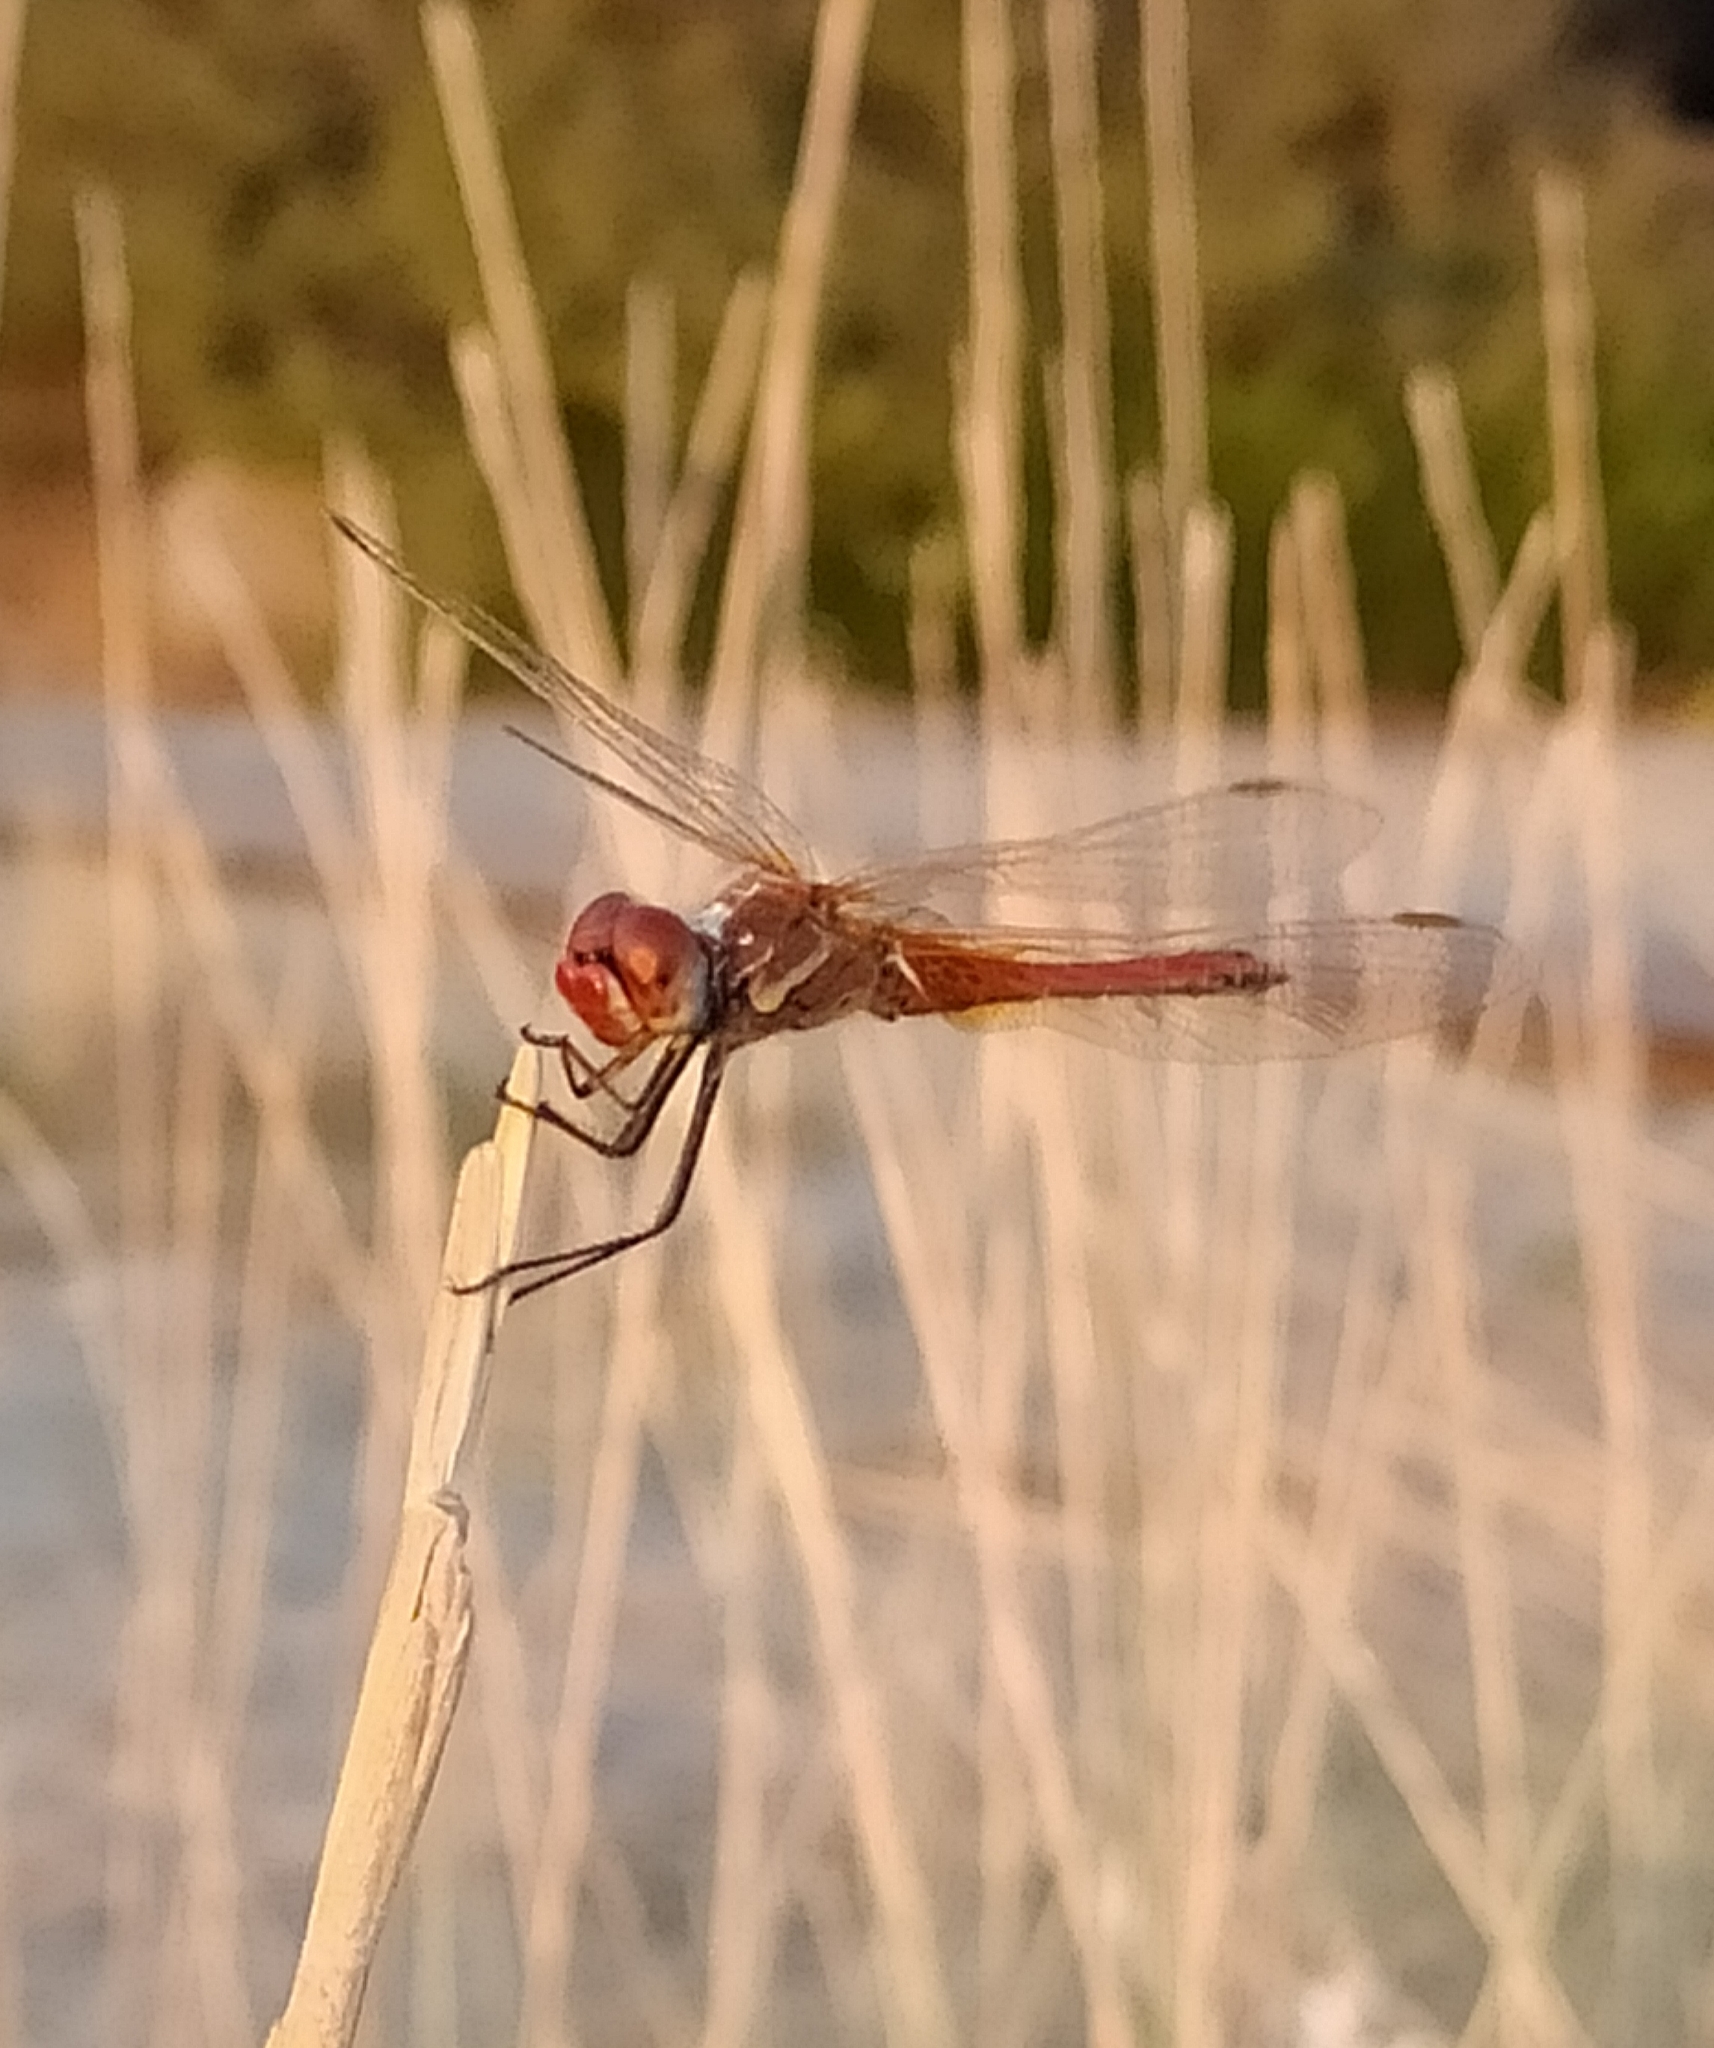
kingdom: Animalia
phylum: Arthropoda
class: Insecta
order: Odonata
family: Libellulidae
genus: Sympetrum
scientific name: Sympetrum fonscolombii
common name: Red-veined darter
